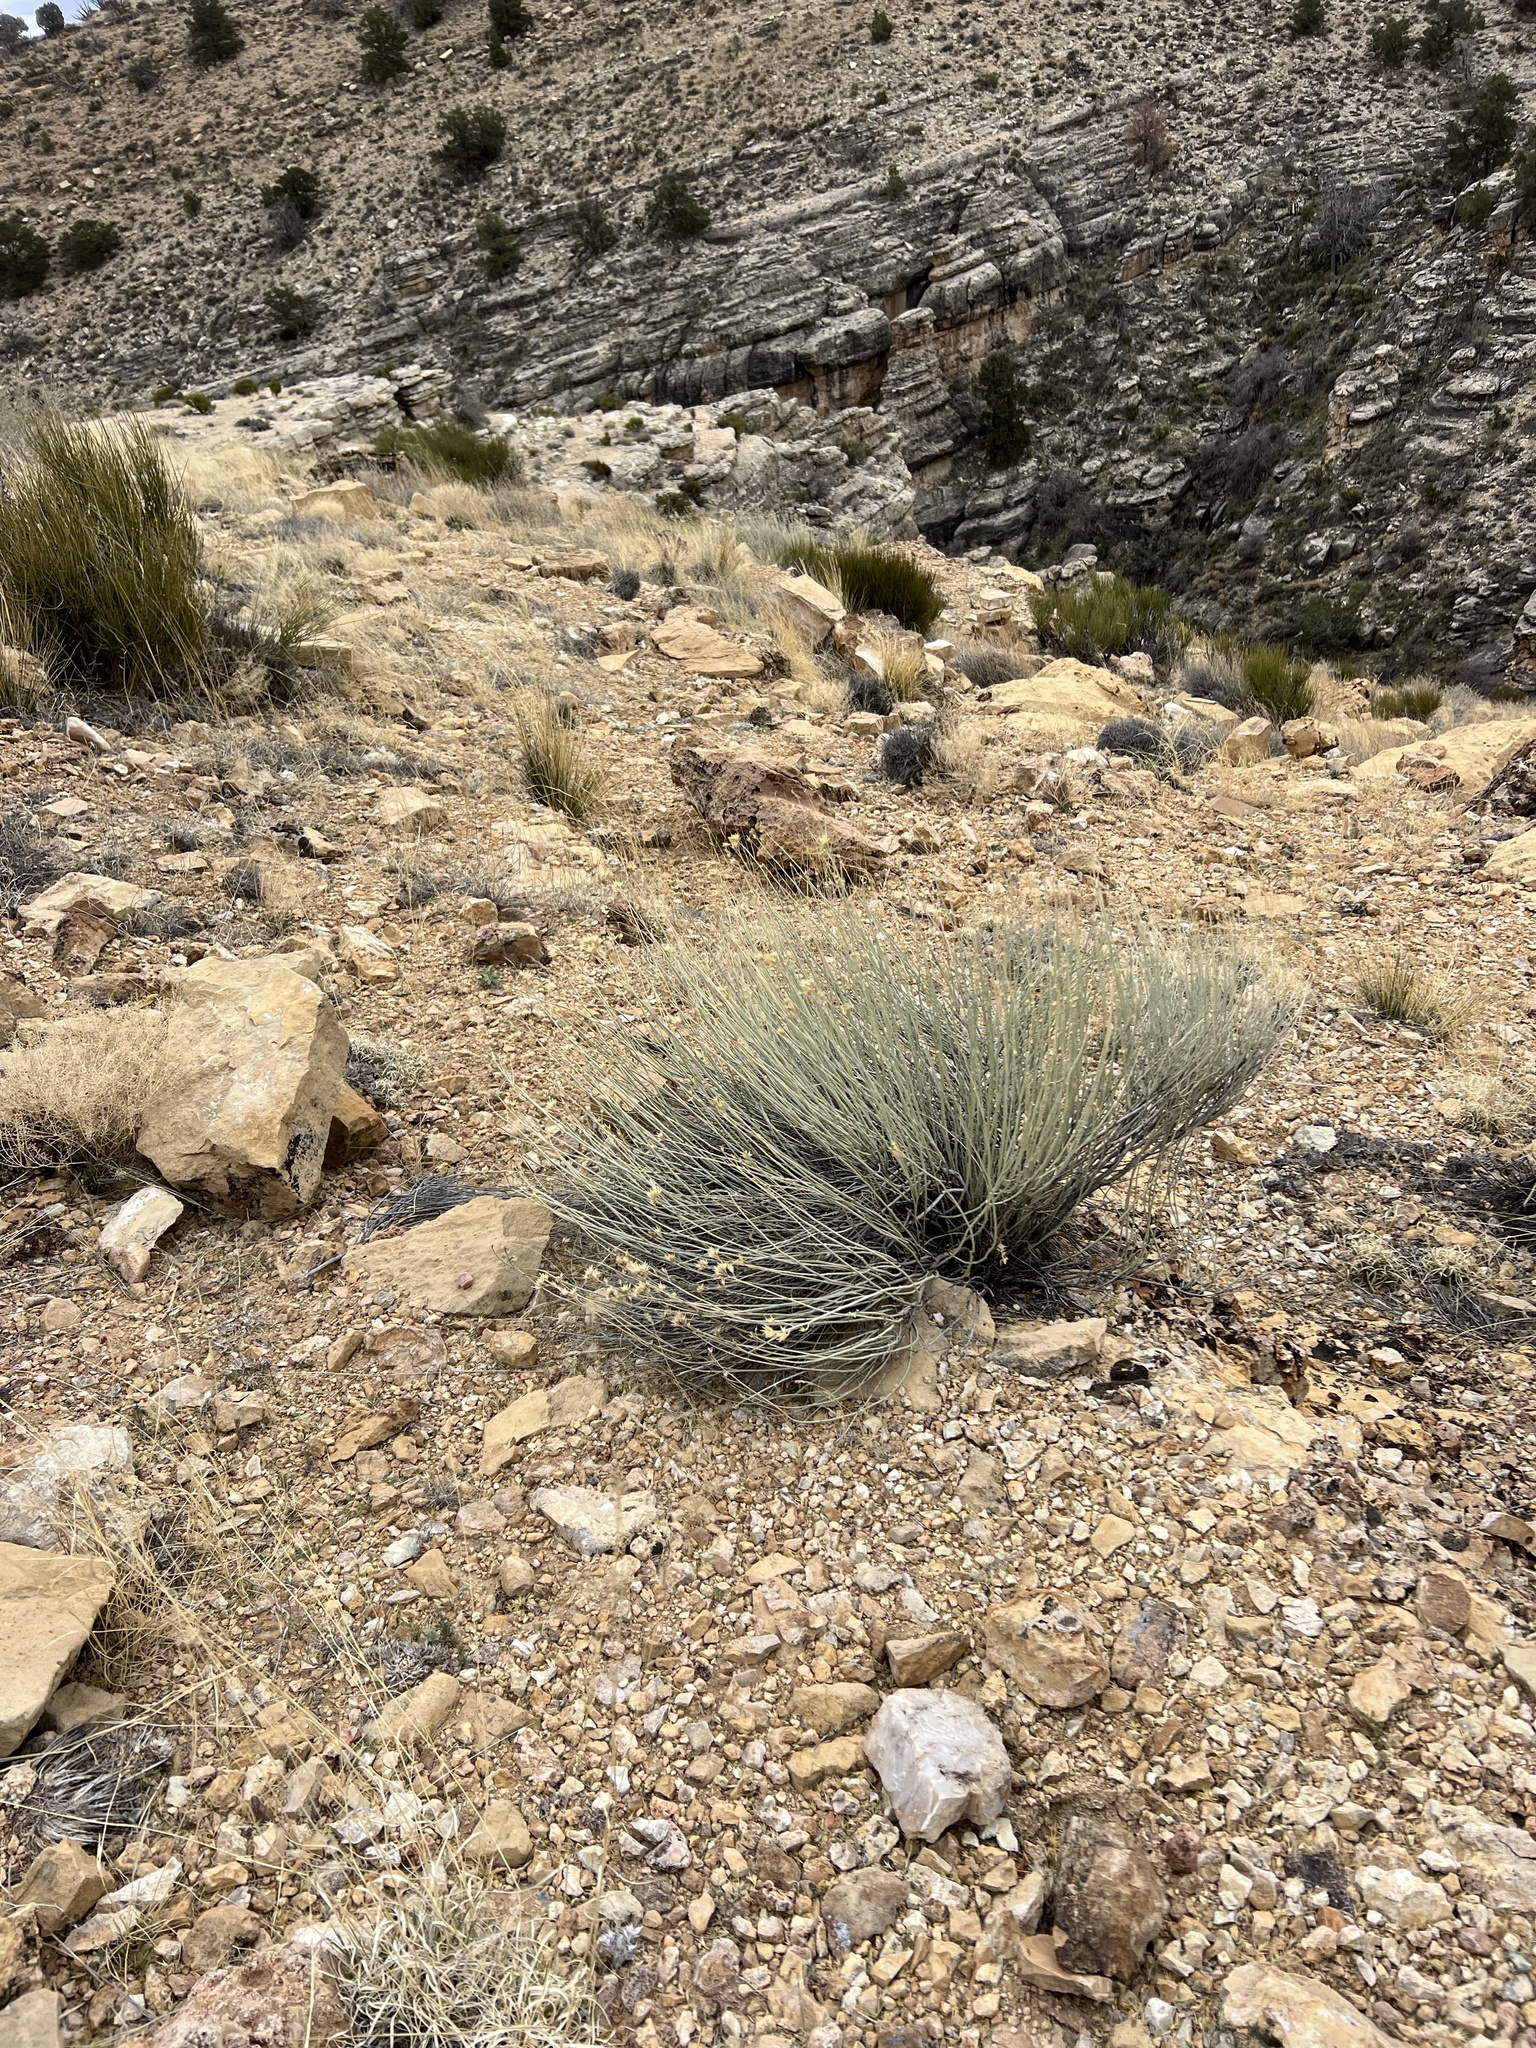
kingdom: Plantae
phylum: Tracheophyta
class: Magnoliopsida
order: Asterales
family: Asteraceae
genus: Ericameria
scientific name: Ericameria nauseosa
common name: Rubber rabbitbrush
